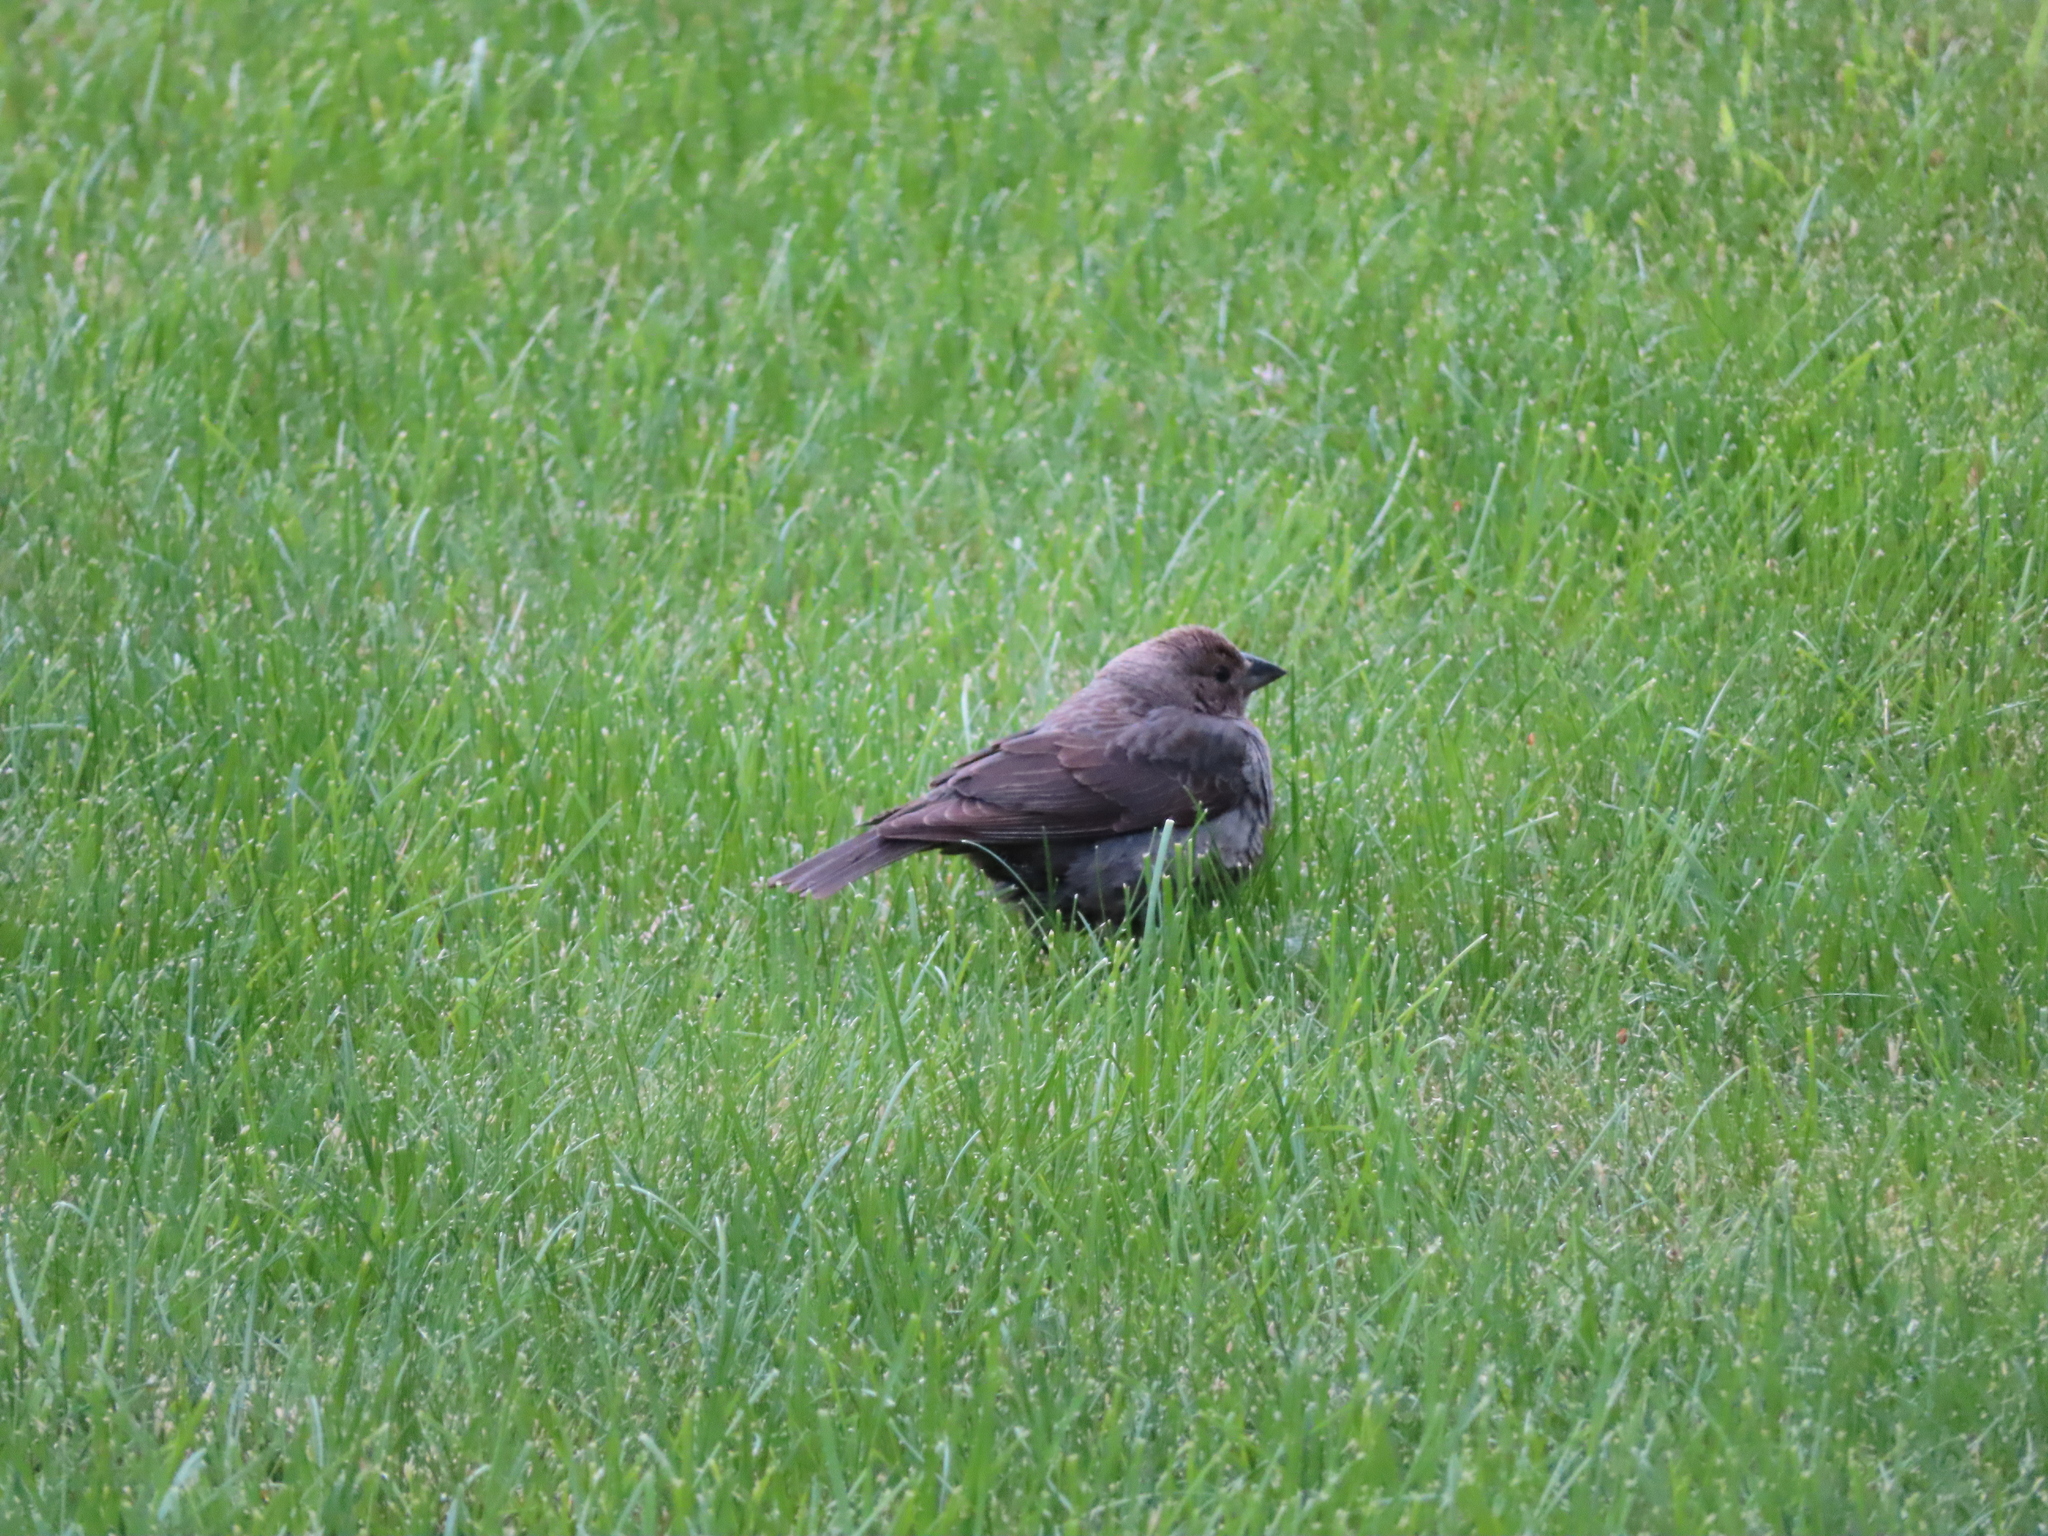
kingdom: Animalia
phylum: Chordata
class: Aves
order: Passeriformes
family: Icteridae
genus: Molothrus
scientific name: Molothrus ater
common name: Brown-headed cowbird
